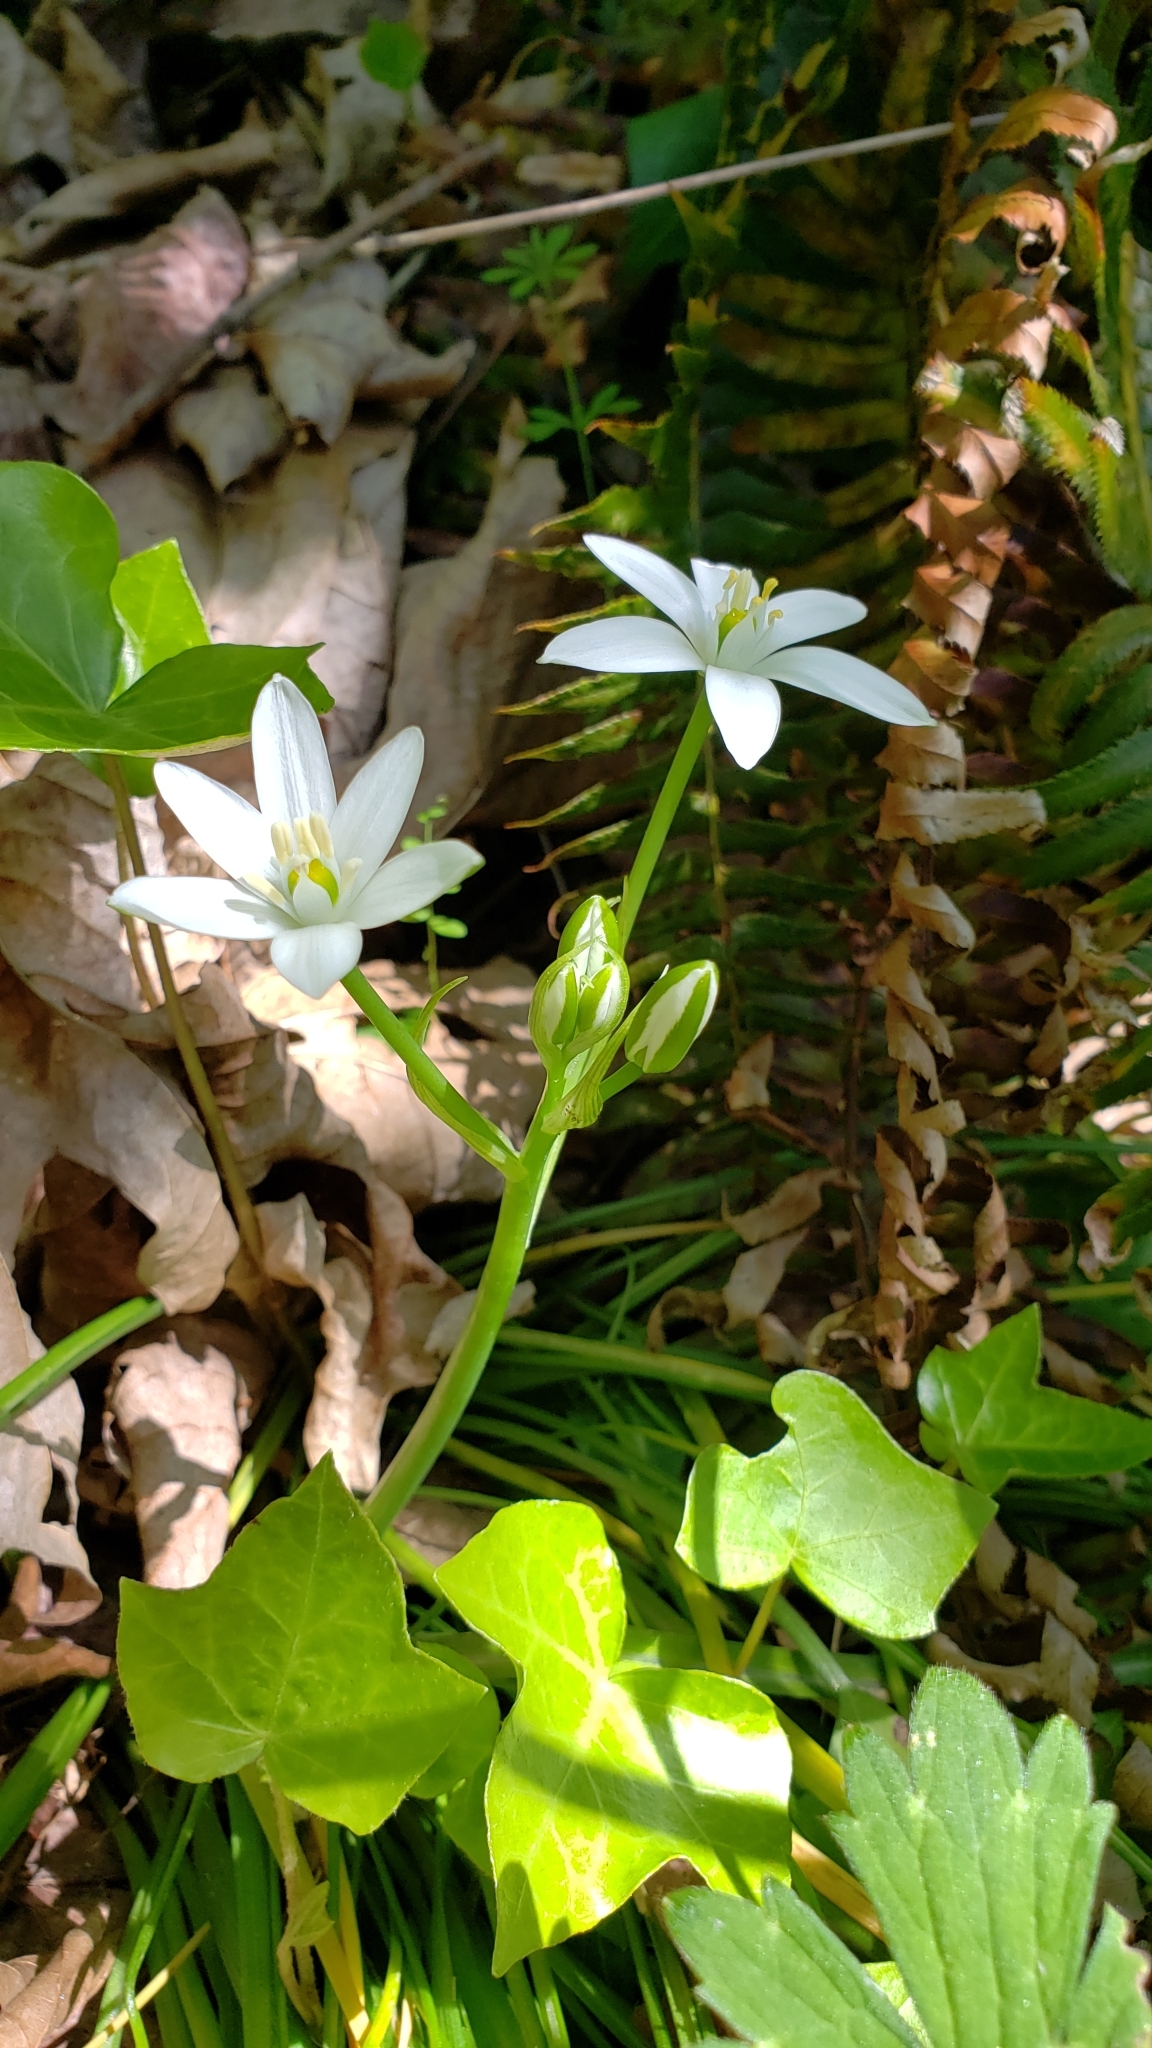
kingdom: Plantae
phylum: Tracheophyta
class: Liliopsida
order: Asparagales
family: Asparagaceae
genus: Ornithogalum
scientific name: Ornithogalum umbellatum
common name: Garden star-of-bethlehem
